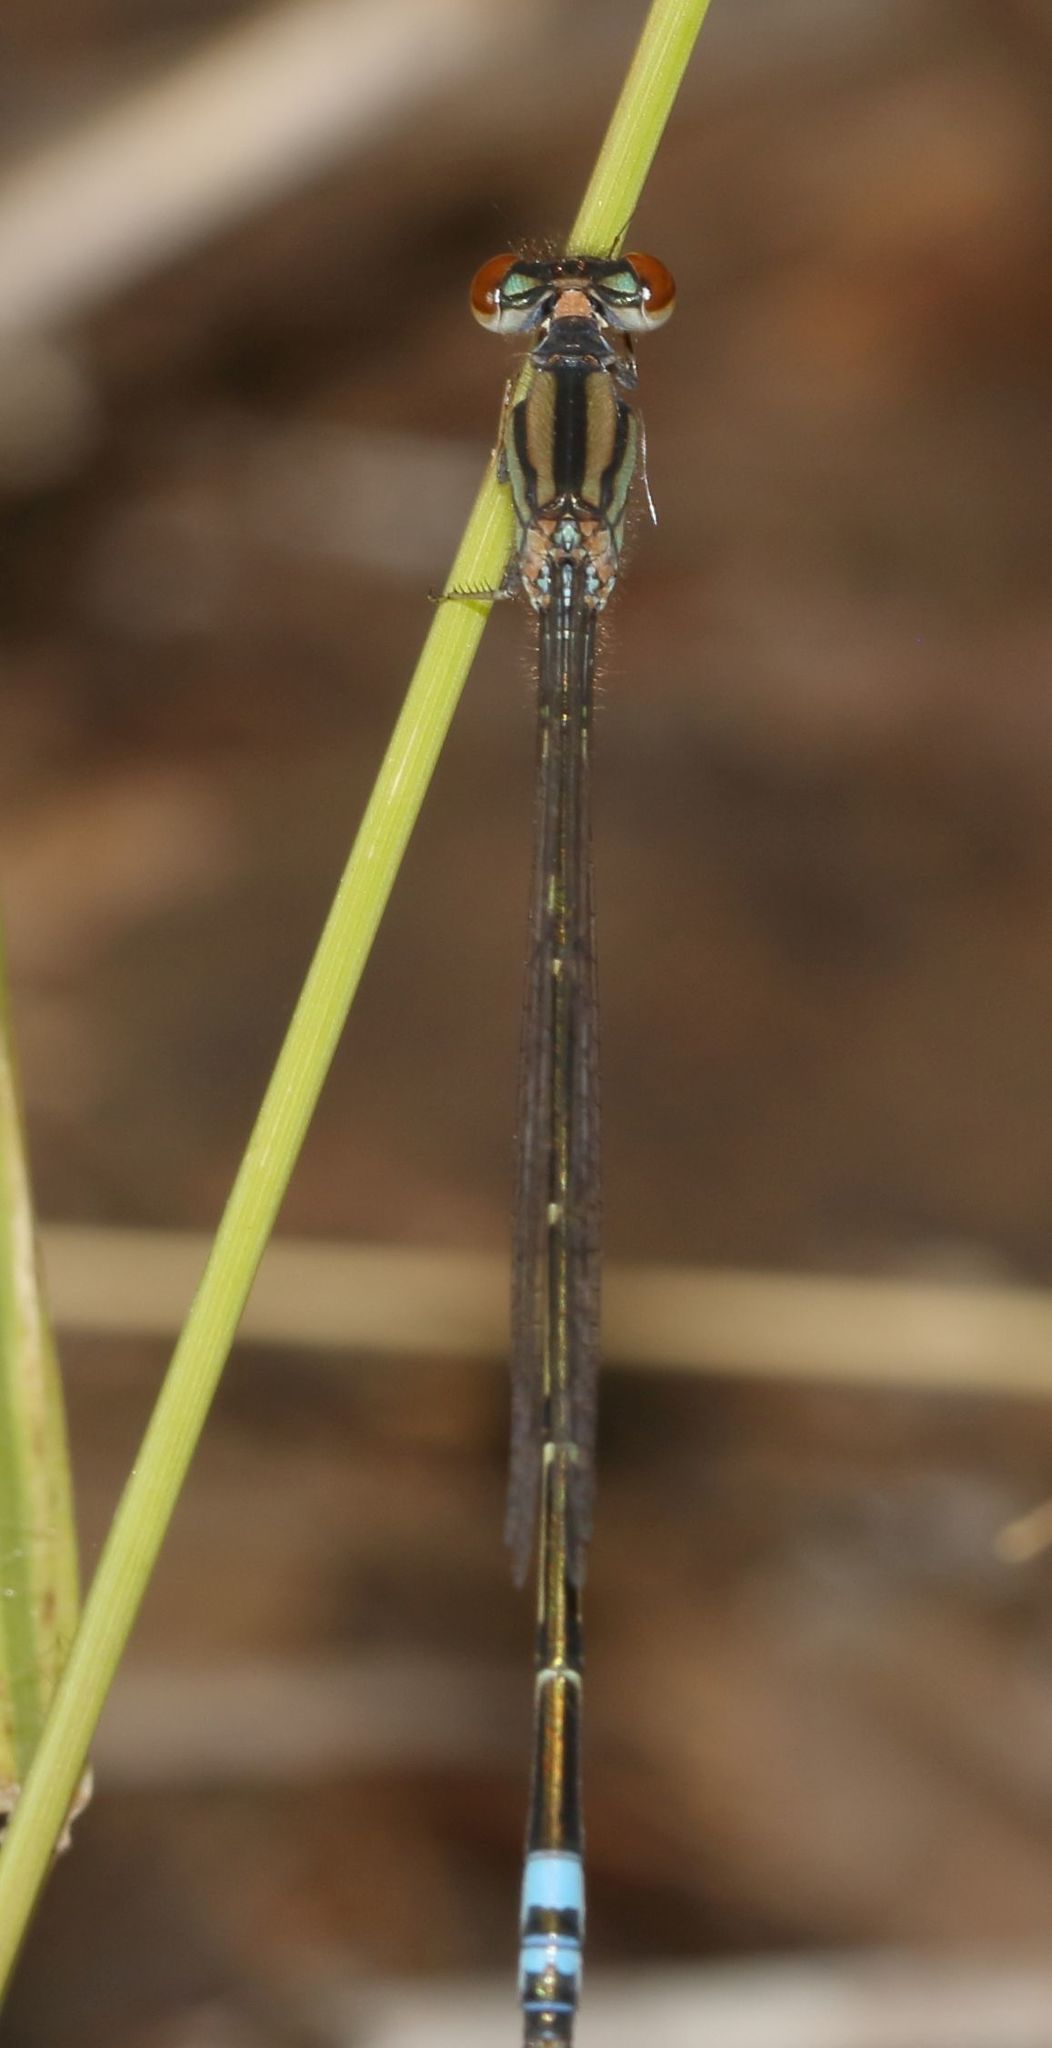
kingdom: Animalia
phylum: Arthropoda
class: Insecta
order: Odonata
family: Coenagrionidae
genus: Pseudagrion
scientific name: Pseudagrion hamoni
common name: Swarthy sprite
